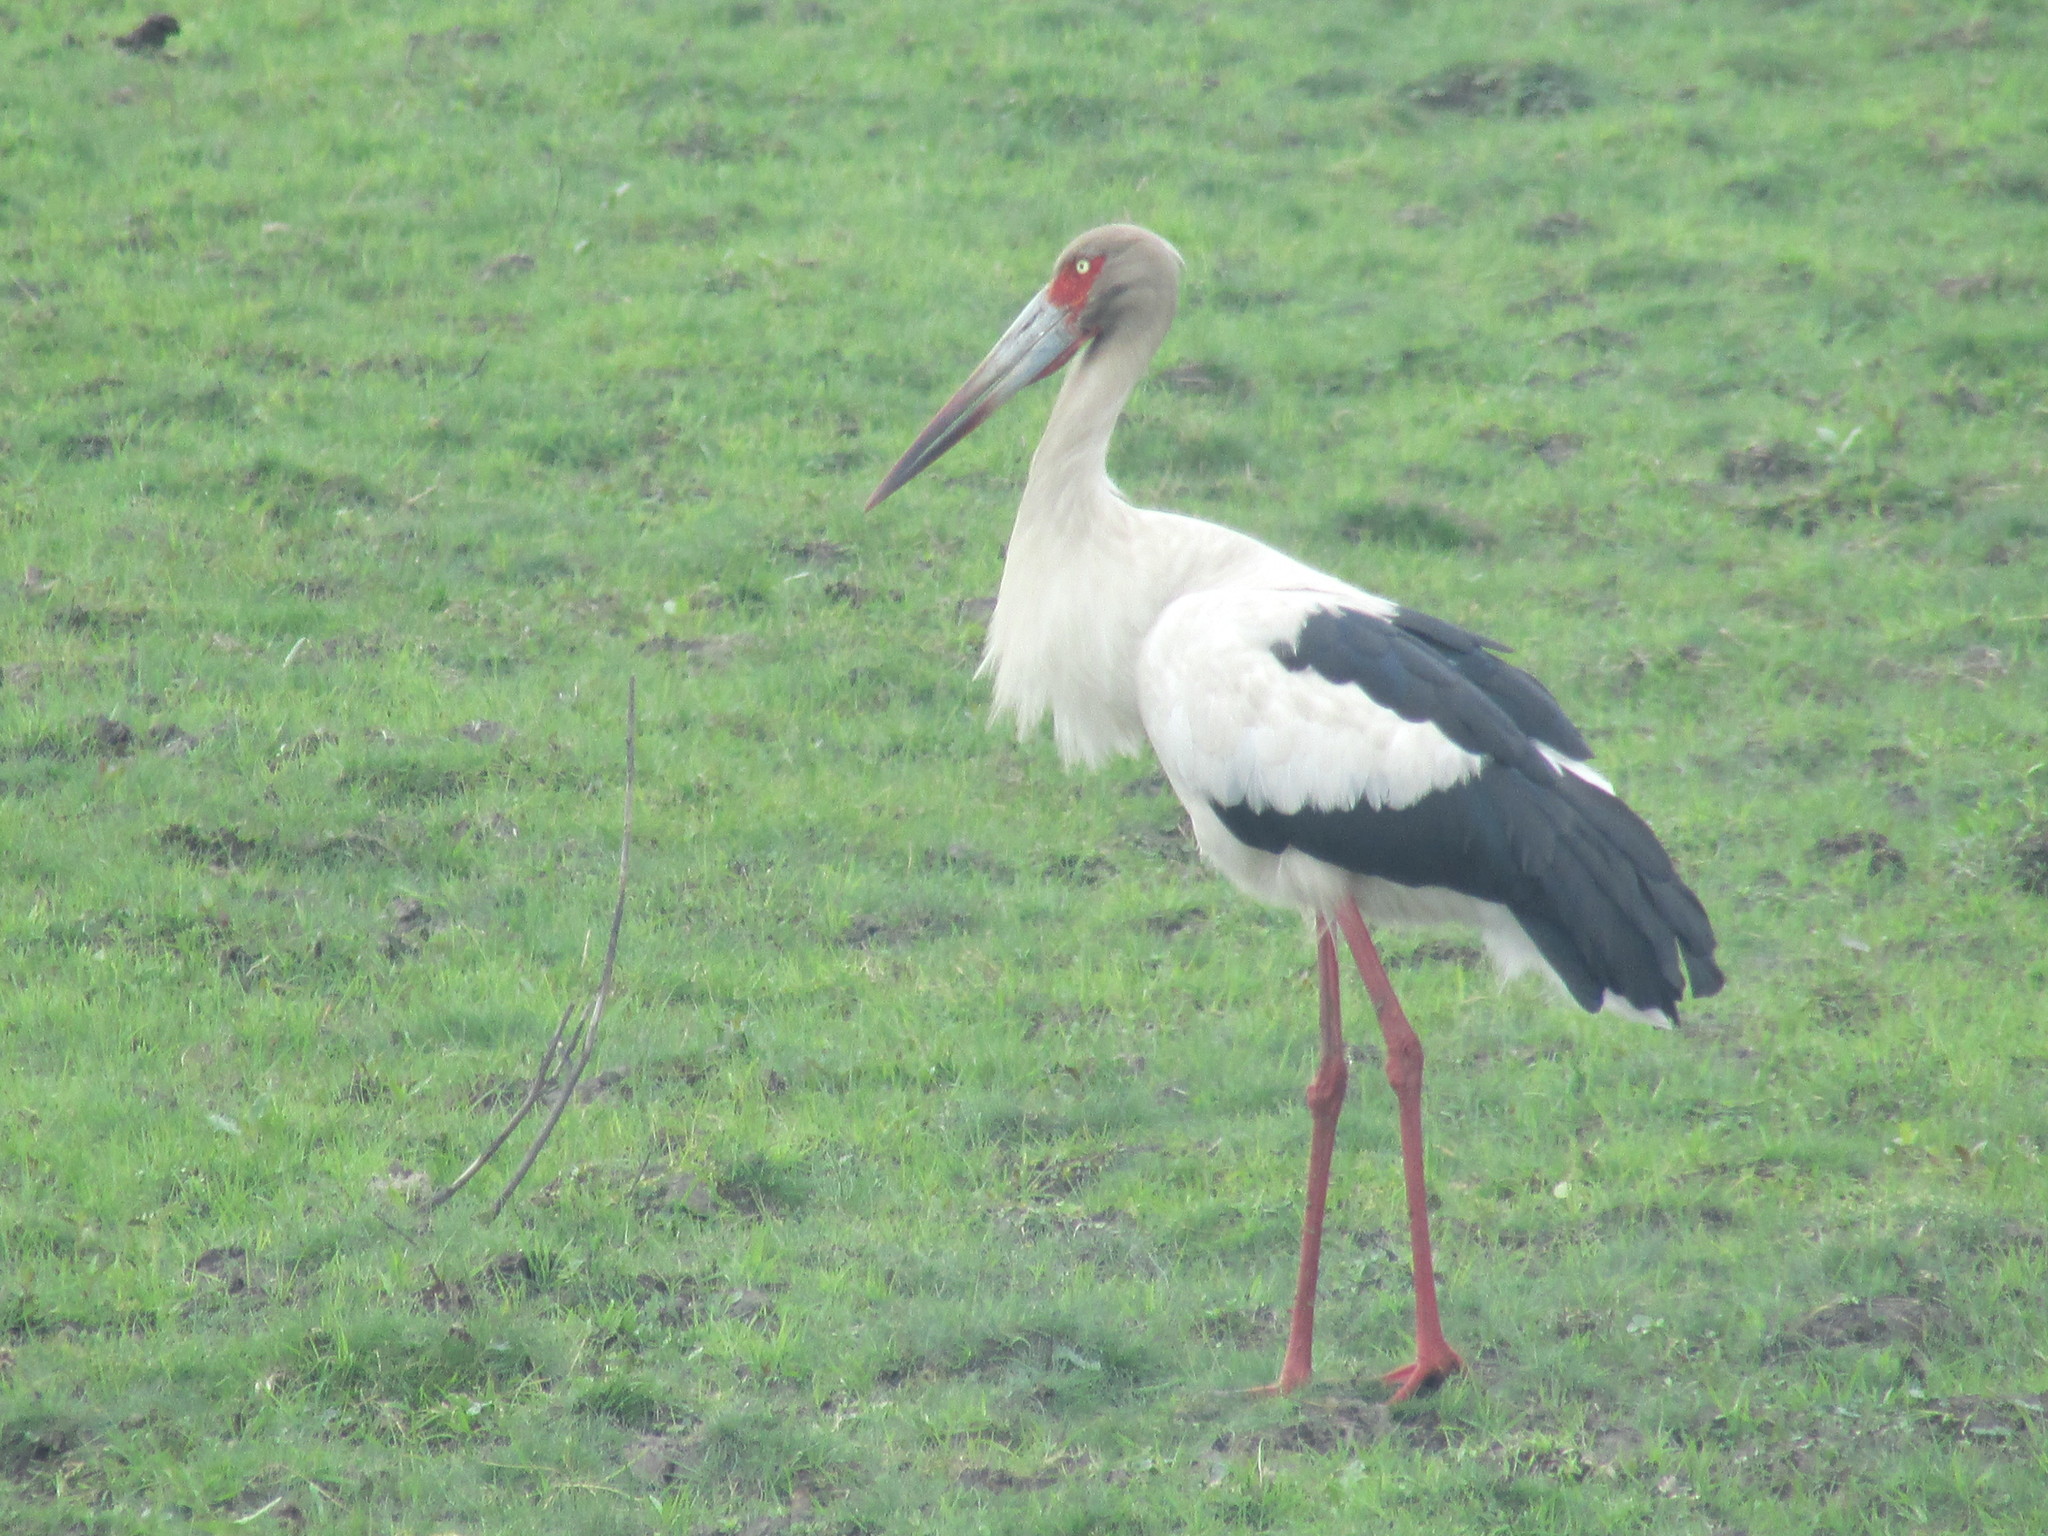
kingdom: Animalia
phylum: Chordata
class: Aves
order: Ciconiiformes
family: Ciconiidae
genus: Ciconia
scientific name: Ciconia maguari
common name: Maguari stork
